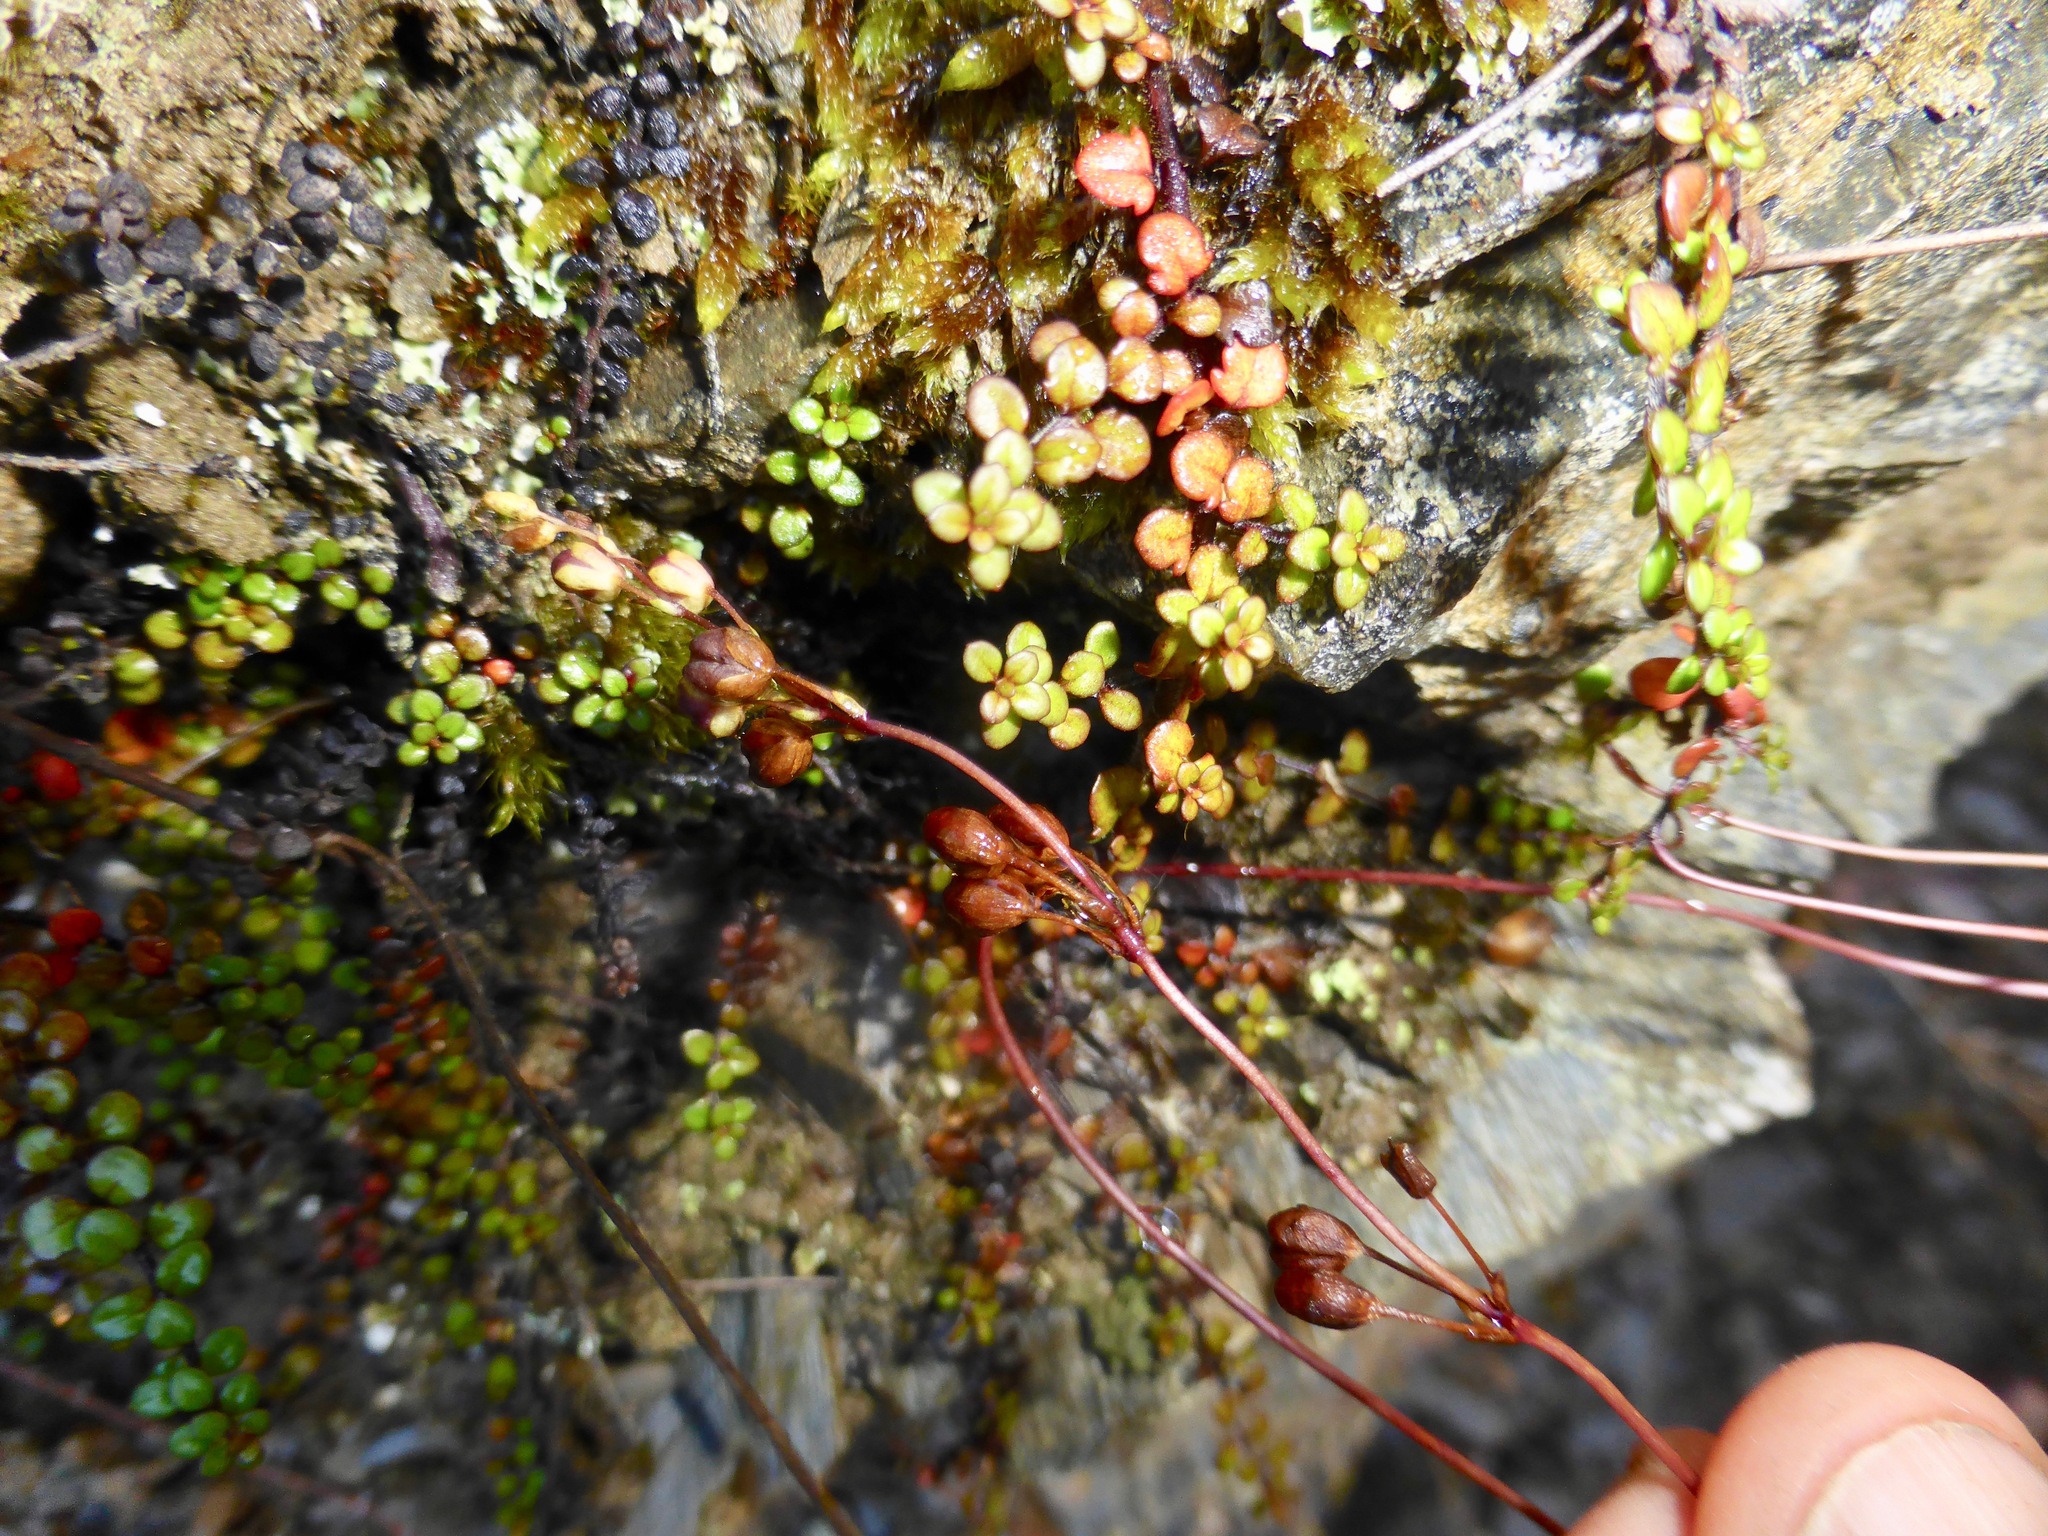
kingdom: Plantae
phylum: Tracheophyta
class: Magnoliopsida
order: Lamiales
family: Plantaginaceae
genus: Veronica
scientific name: Veronica decora
